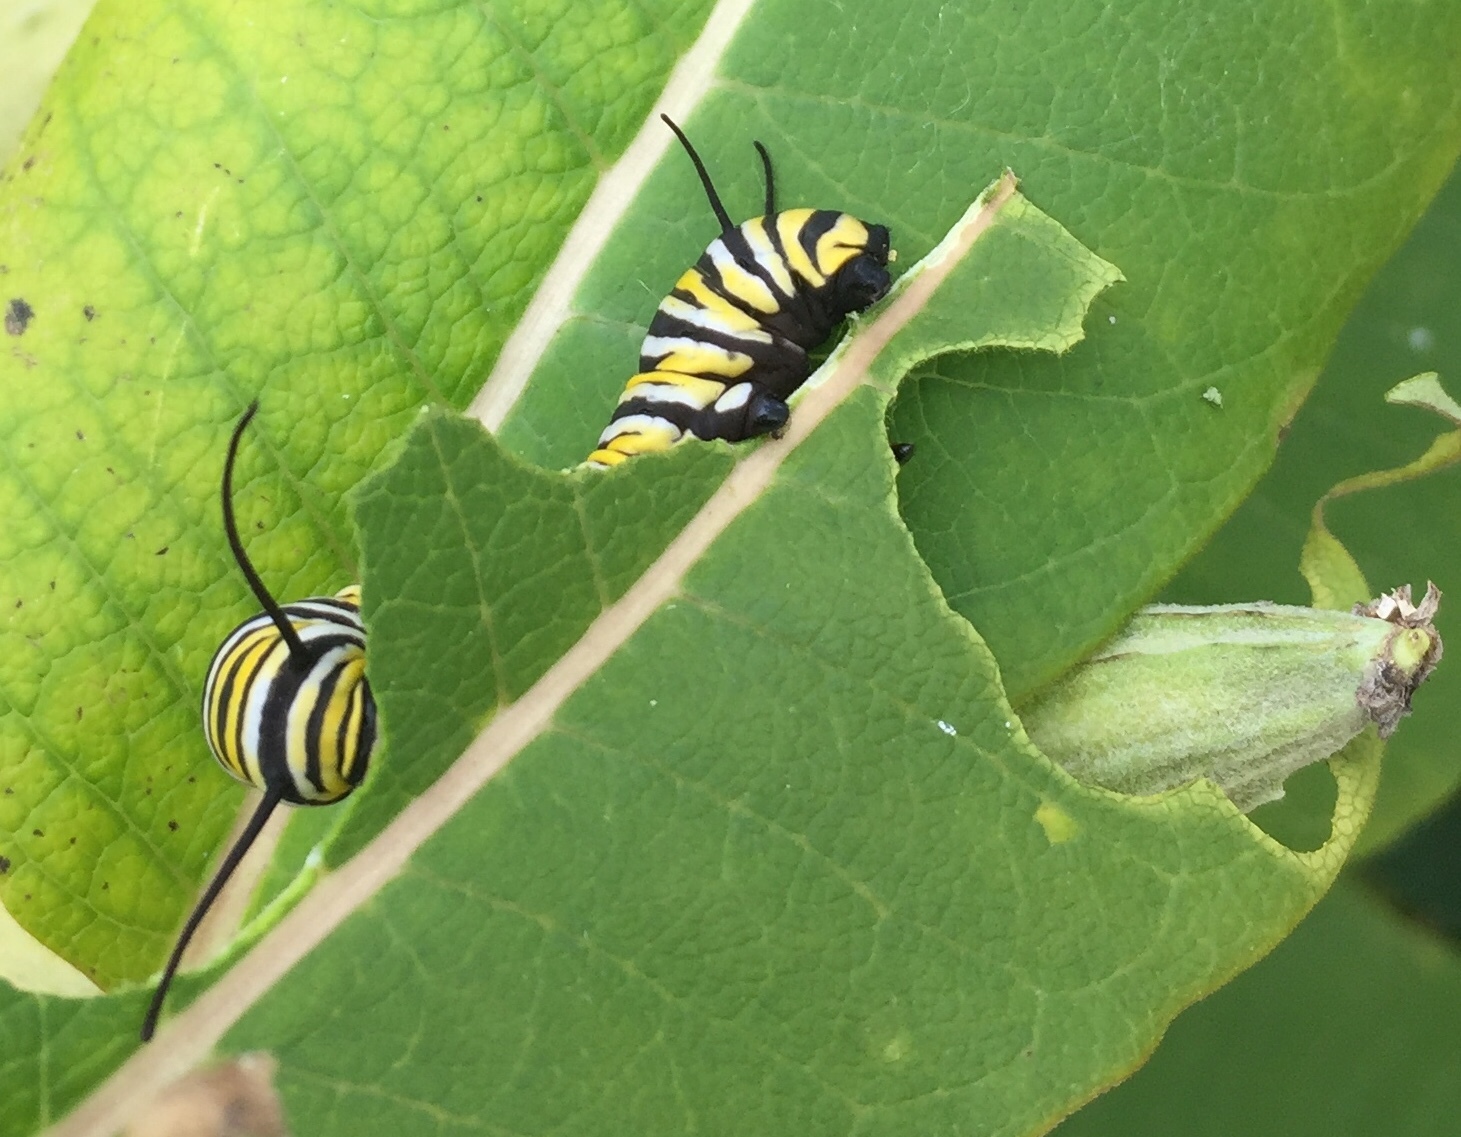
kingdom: Animalia
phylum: Arthropoda
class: Insecta
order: Lepidoptera
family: Nymphalidae
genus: Danaus
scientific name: Danaus plexippus
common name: Monarch
